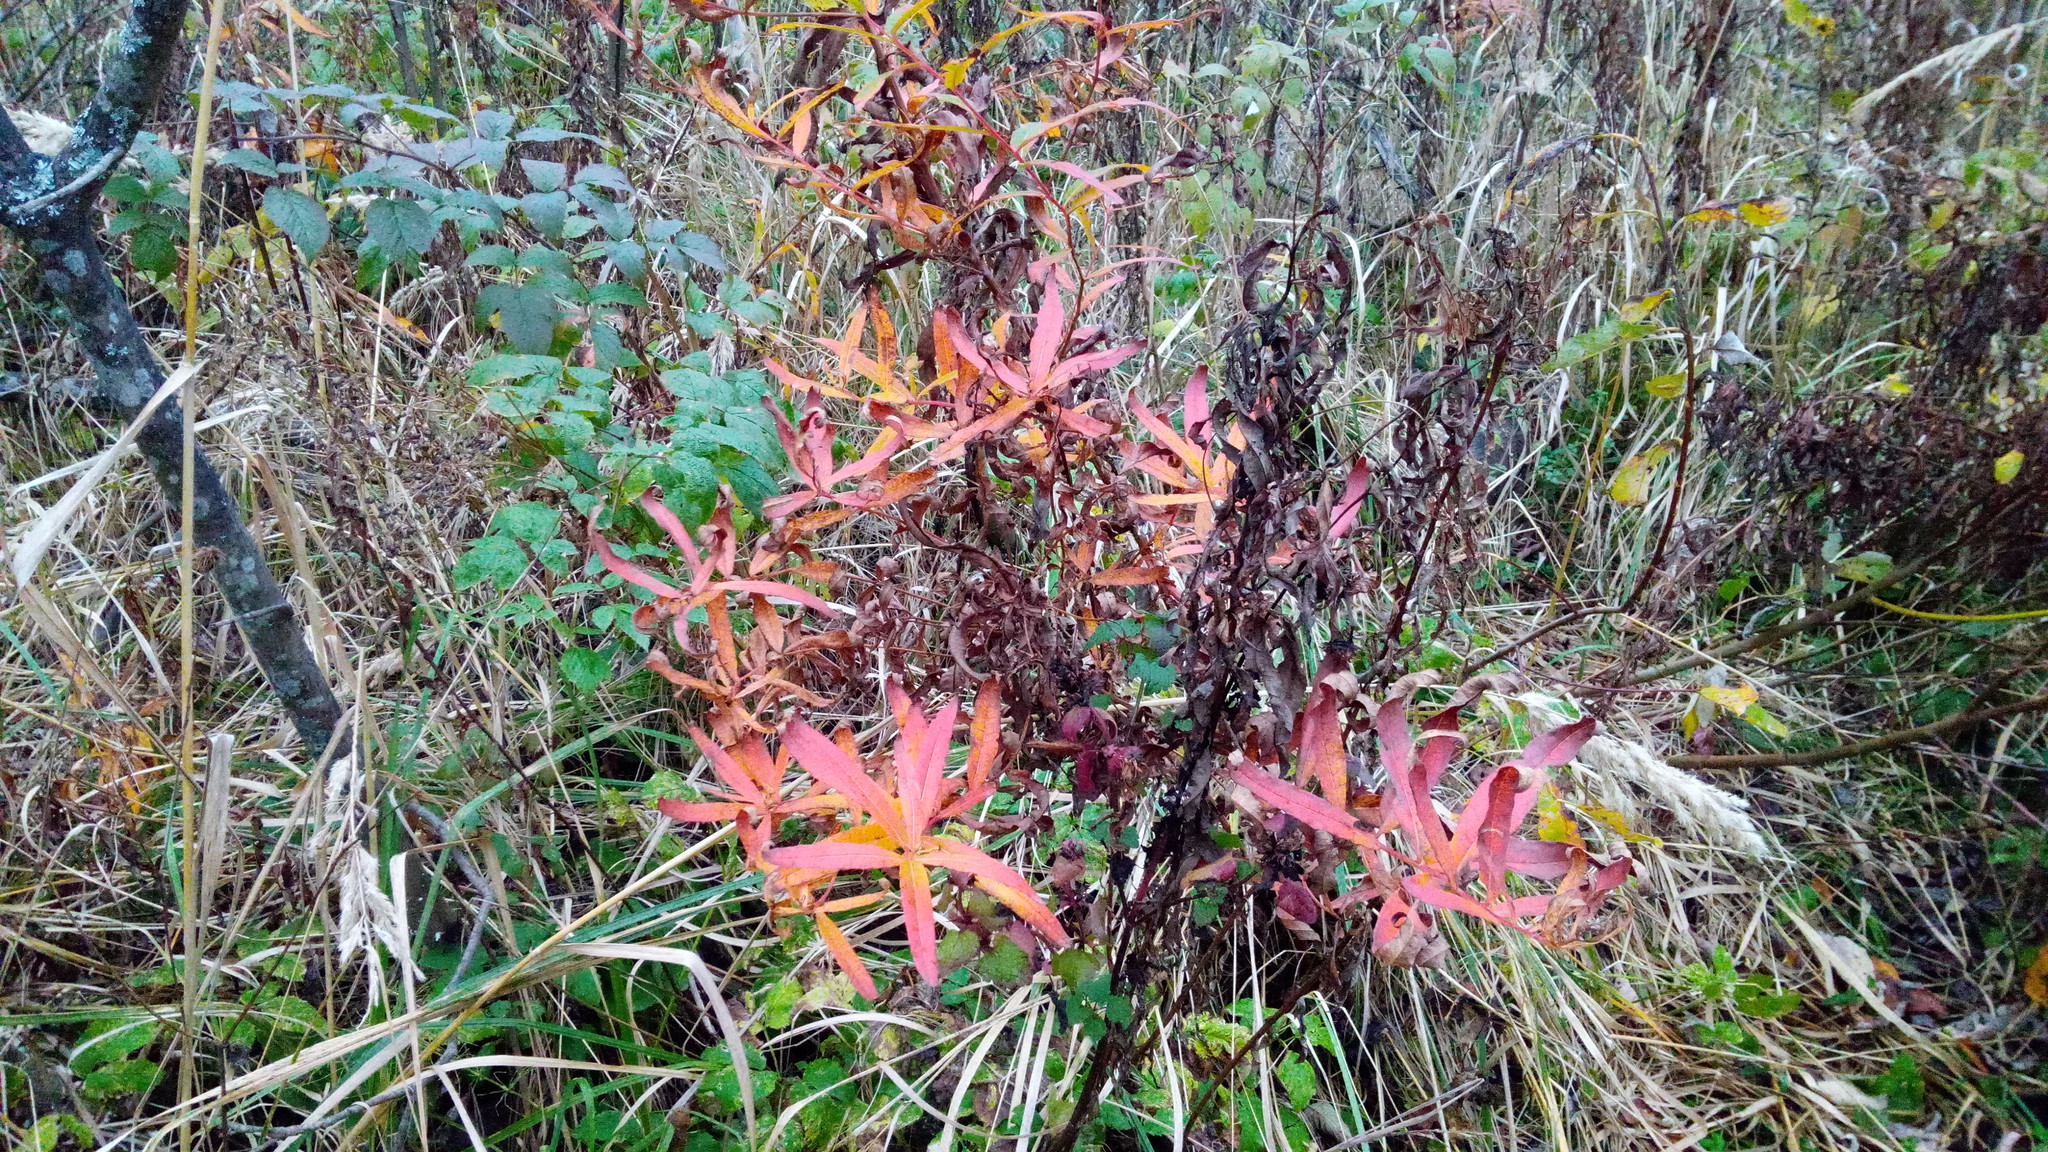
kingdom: Plantae
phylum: Tracheophyta
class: Magnoliopsida
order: Myrtales
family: Onagraceae
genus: Chamaenerion
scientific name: Chamaenerion angustifolium
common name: Fireweed
